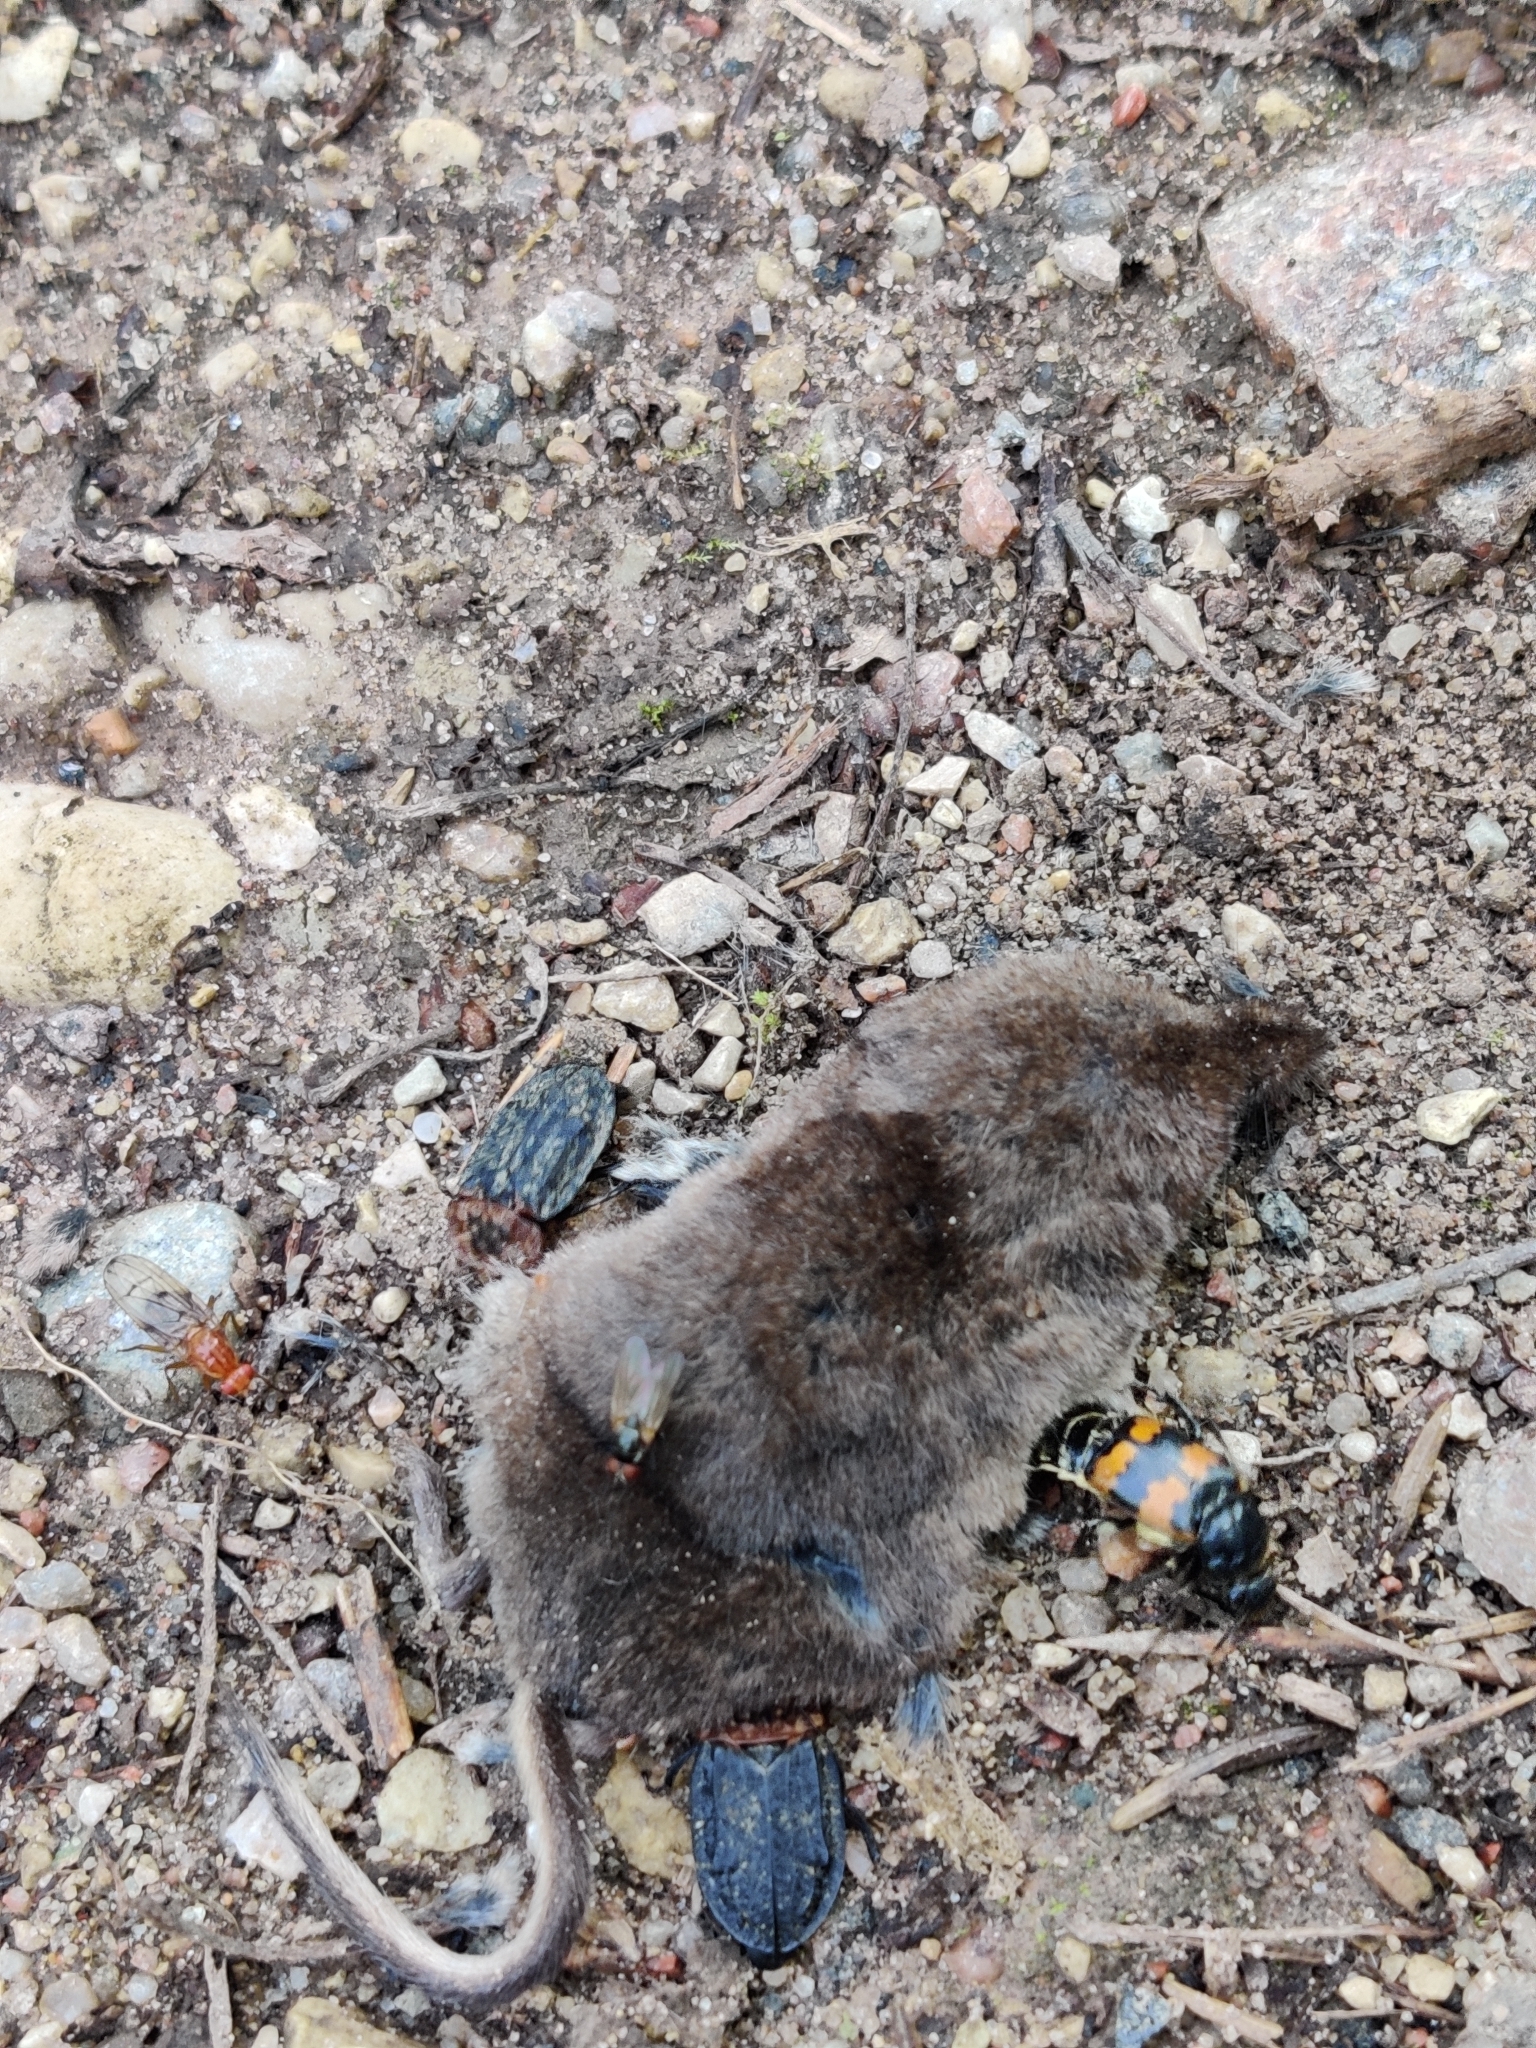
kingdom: Animalia
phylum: Arthropoda
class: Insecta
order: Coleoptera
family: Staphylinidae
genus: Oiceoptoma
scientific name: Oiceoptoma thoracicum
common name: Red-breasted carrion beetle
